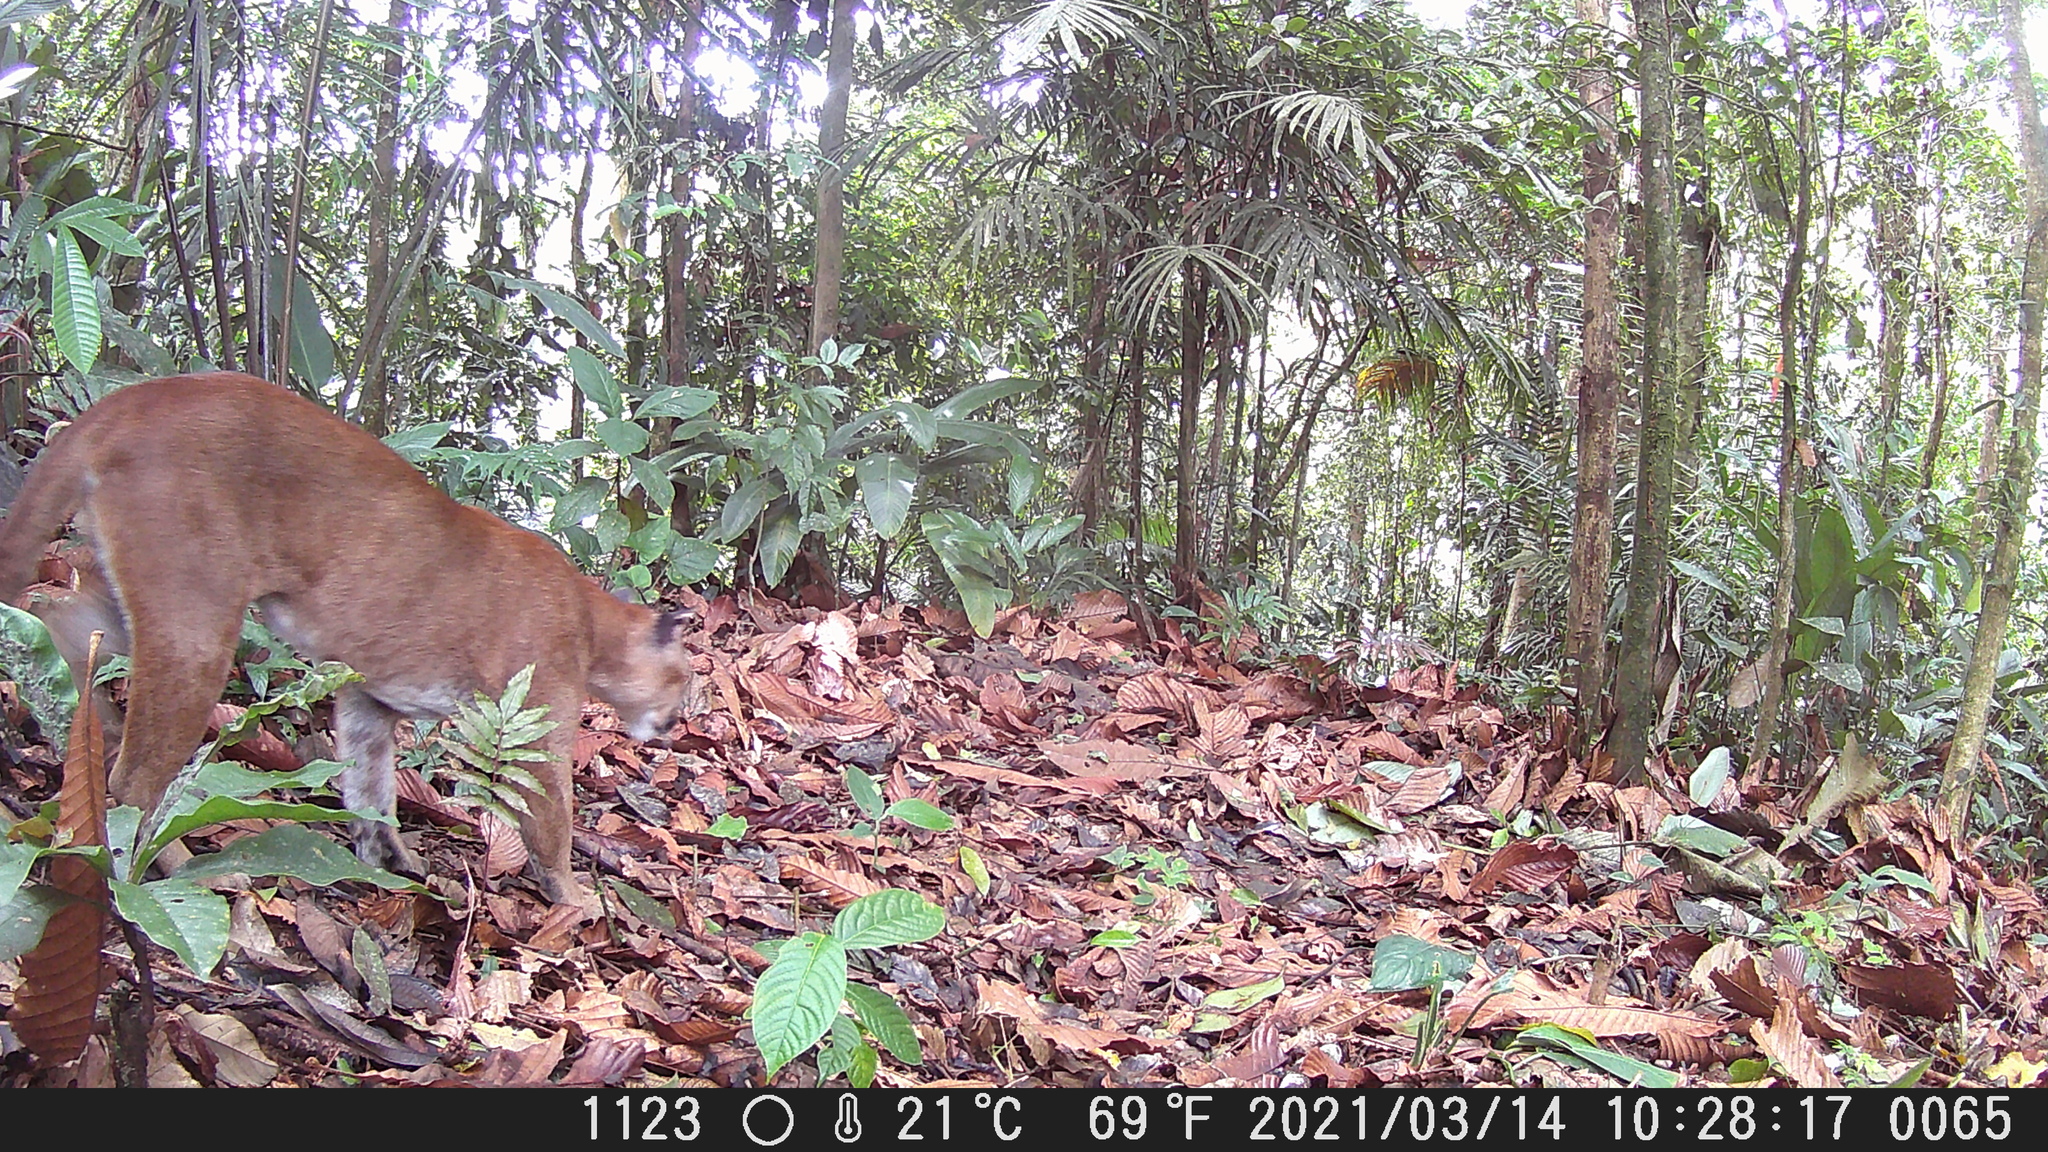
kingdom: Animalia
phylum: Chordata
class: Mammalia
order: Carnivora
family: Felidae
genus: Puma
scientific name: Puma concolor
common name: Puma
